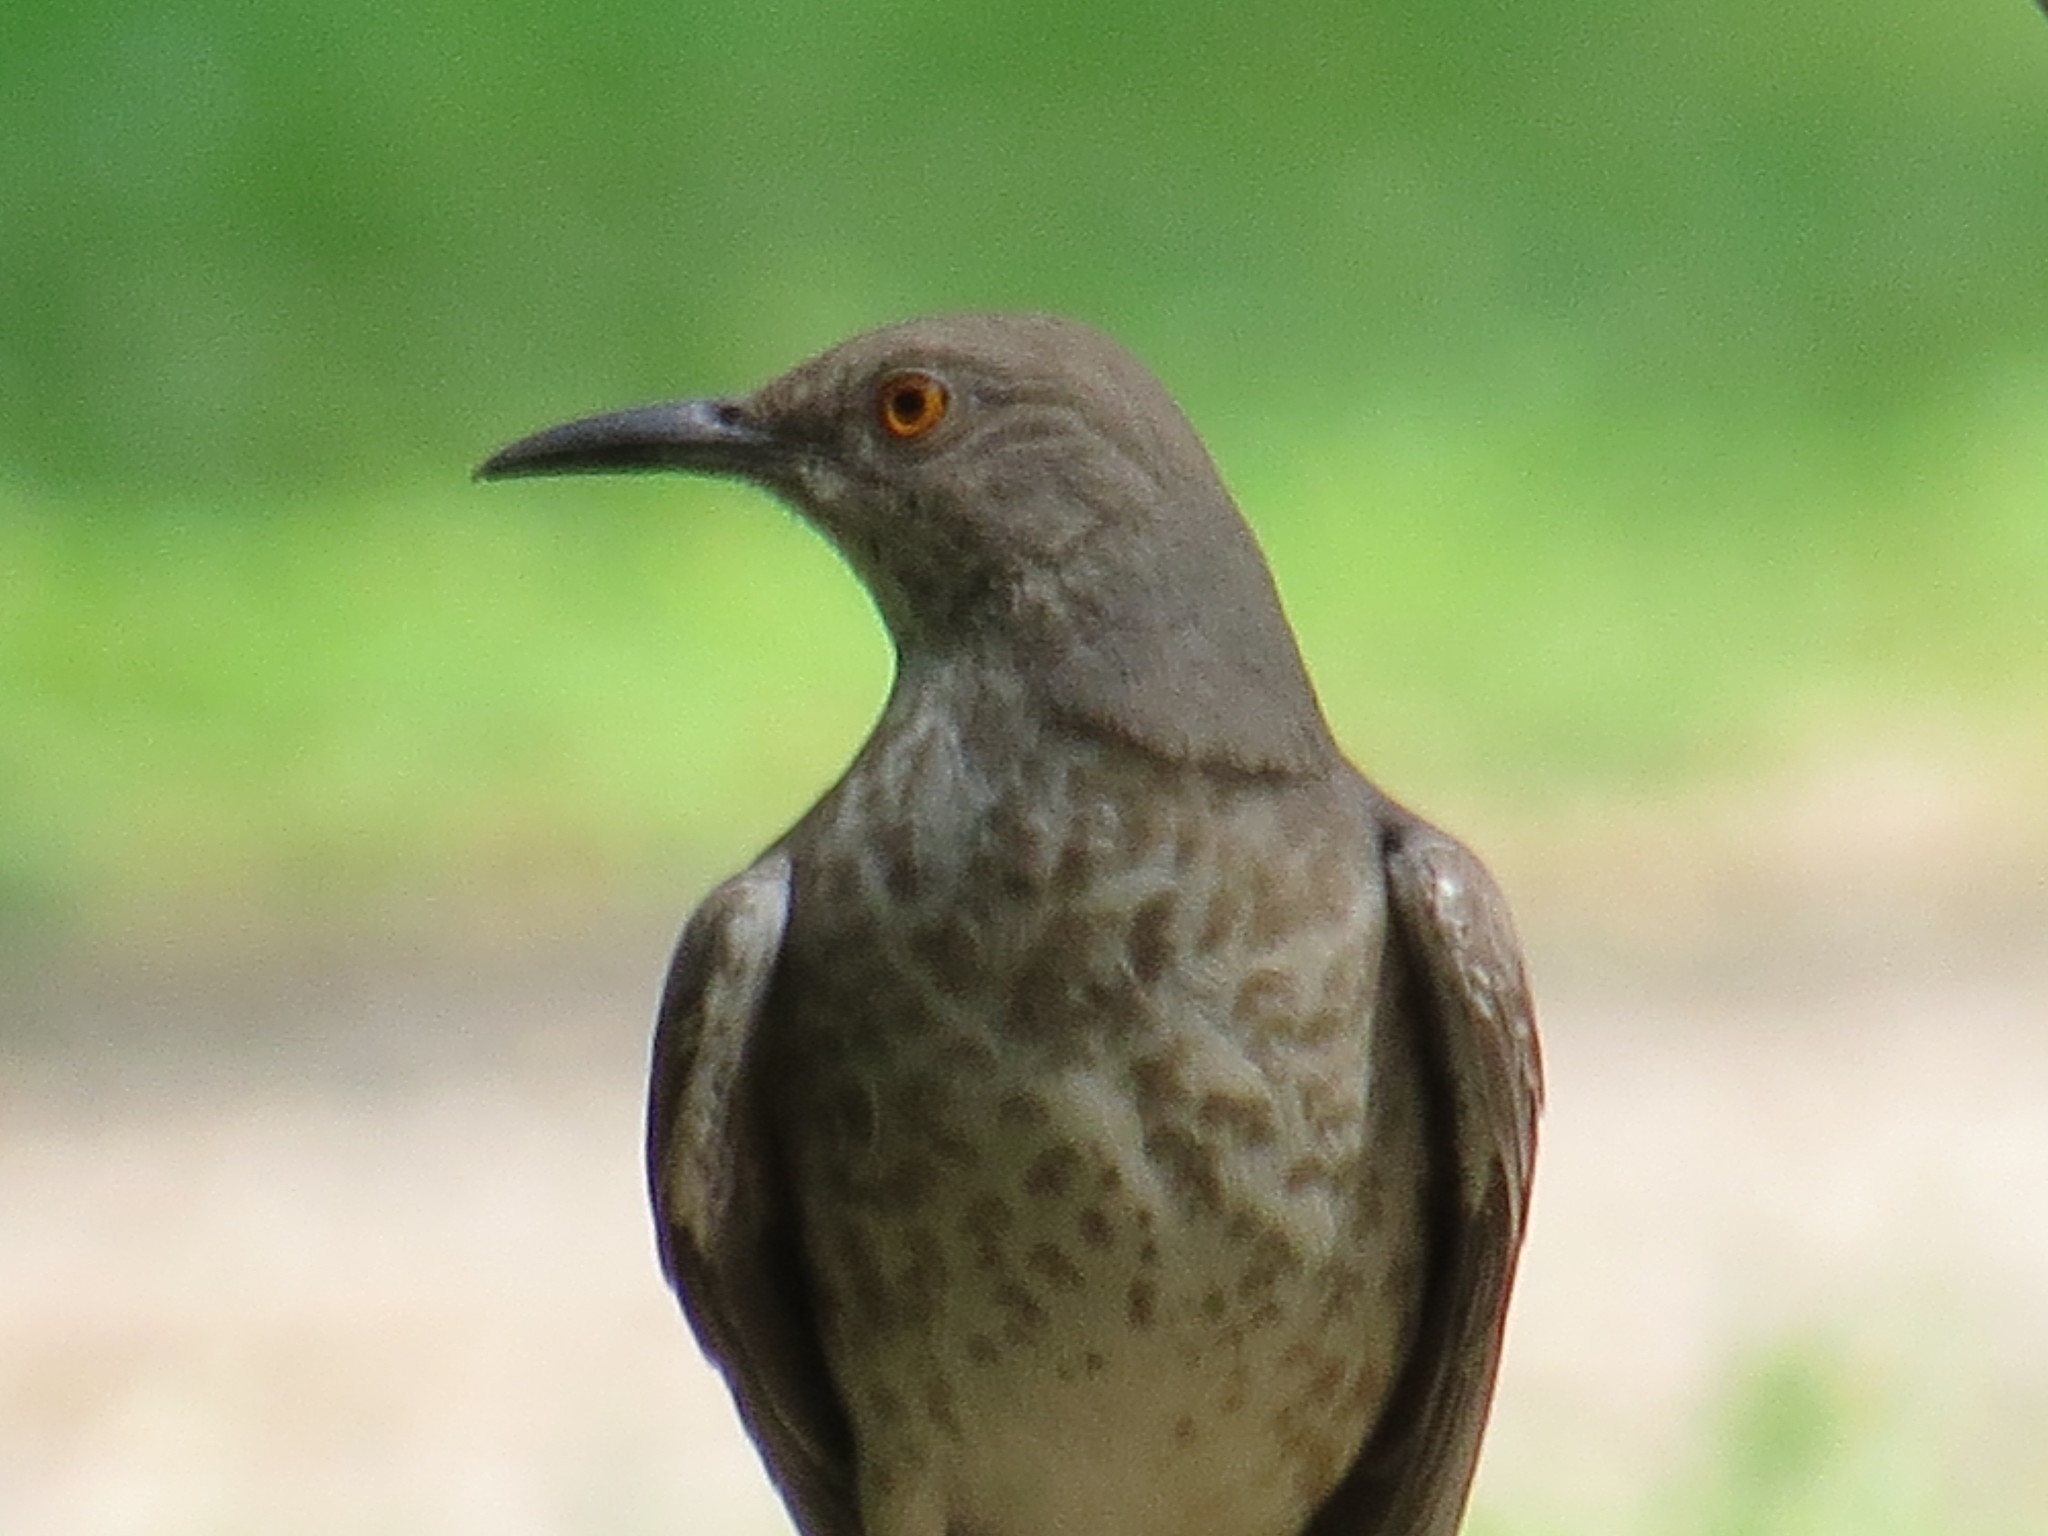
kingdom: Animalia
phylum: Chordata
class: Aves
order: Passeriformes
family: Mimidae
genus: Toxostoma
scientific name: Toxostoma curvirostre
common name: Curve-billed thrasher
